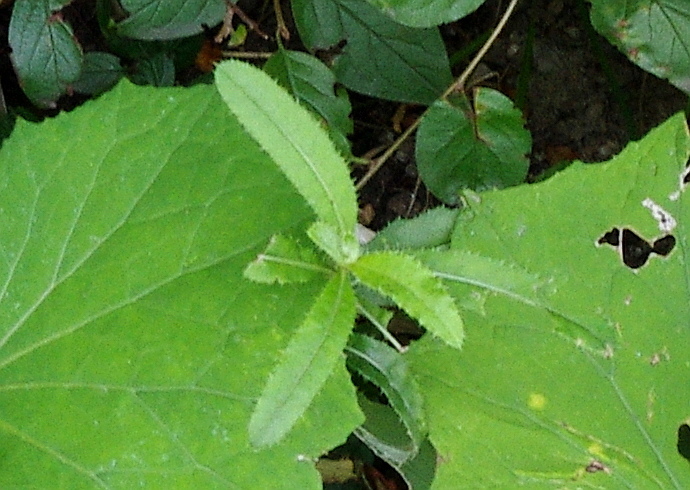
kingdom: Plantae
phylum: Tracheophyta
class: Magnoliopsida
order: Asterales
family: Asteraceae
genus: Cirsium
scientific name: Cirsium arvense
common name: Creeping thistle
